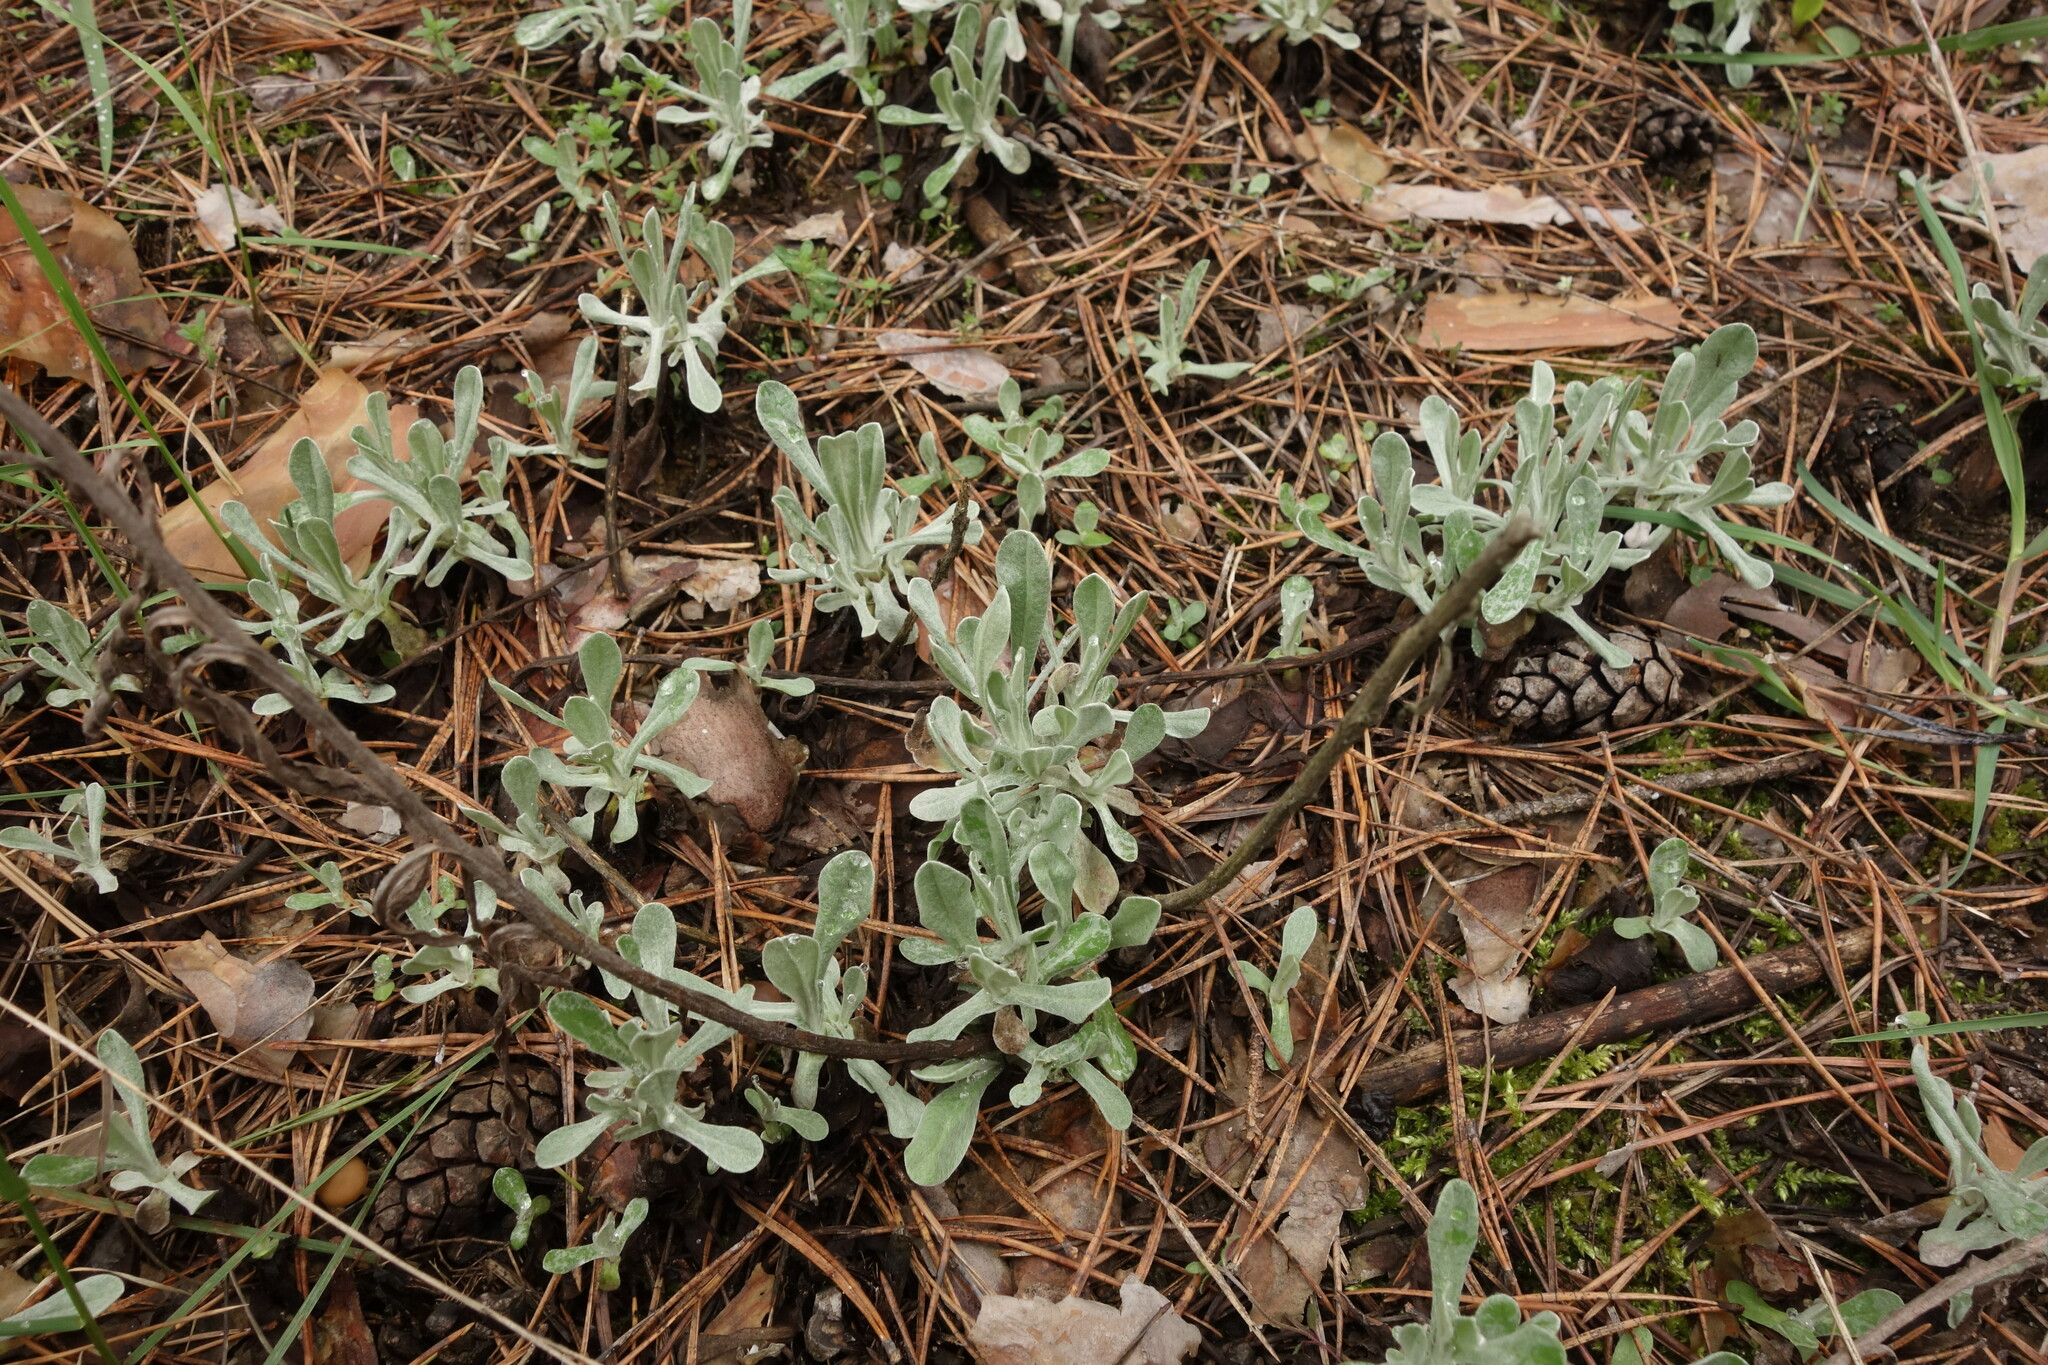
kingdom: Plantae
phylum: Tracheophyta
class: Magnoliopsida
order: Asterales
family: Asteraceae
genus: Helichrysum
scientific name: Helichrysum arenarium
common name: Strawflower
